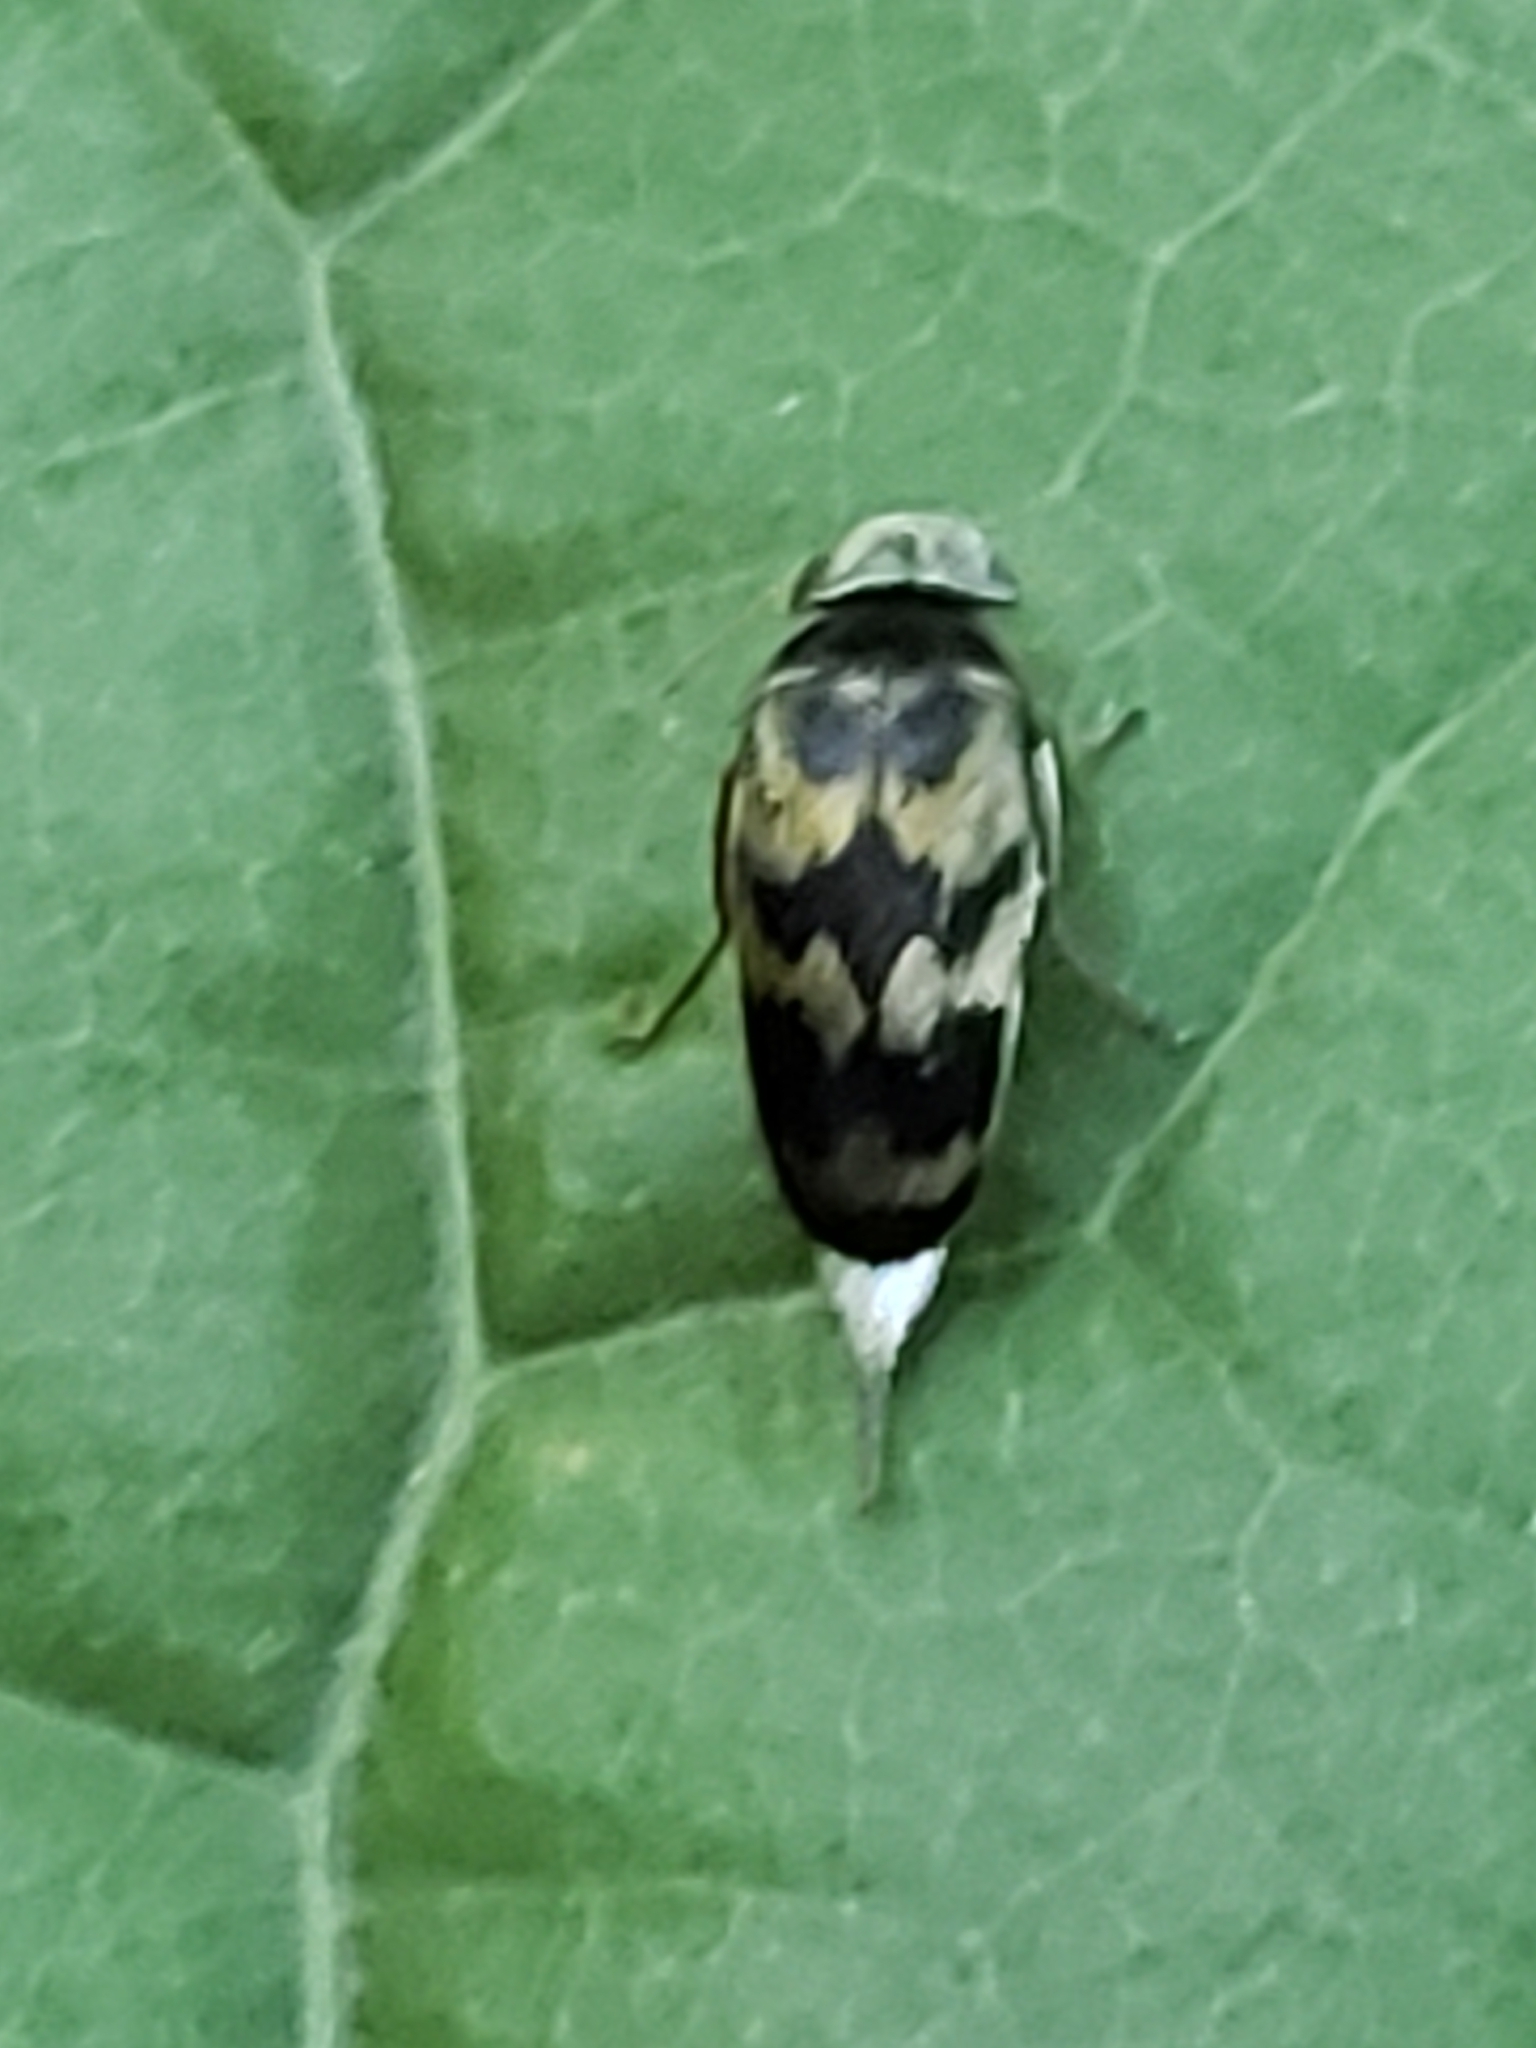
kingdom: Animalia
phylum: Arthropoda
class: Insecta
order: Coleoptera
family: Mordellidae
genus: Paramordellaria
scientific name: Paramordellaria triloba
